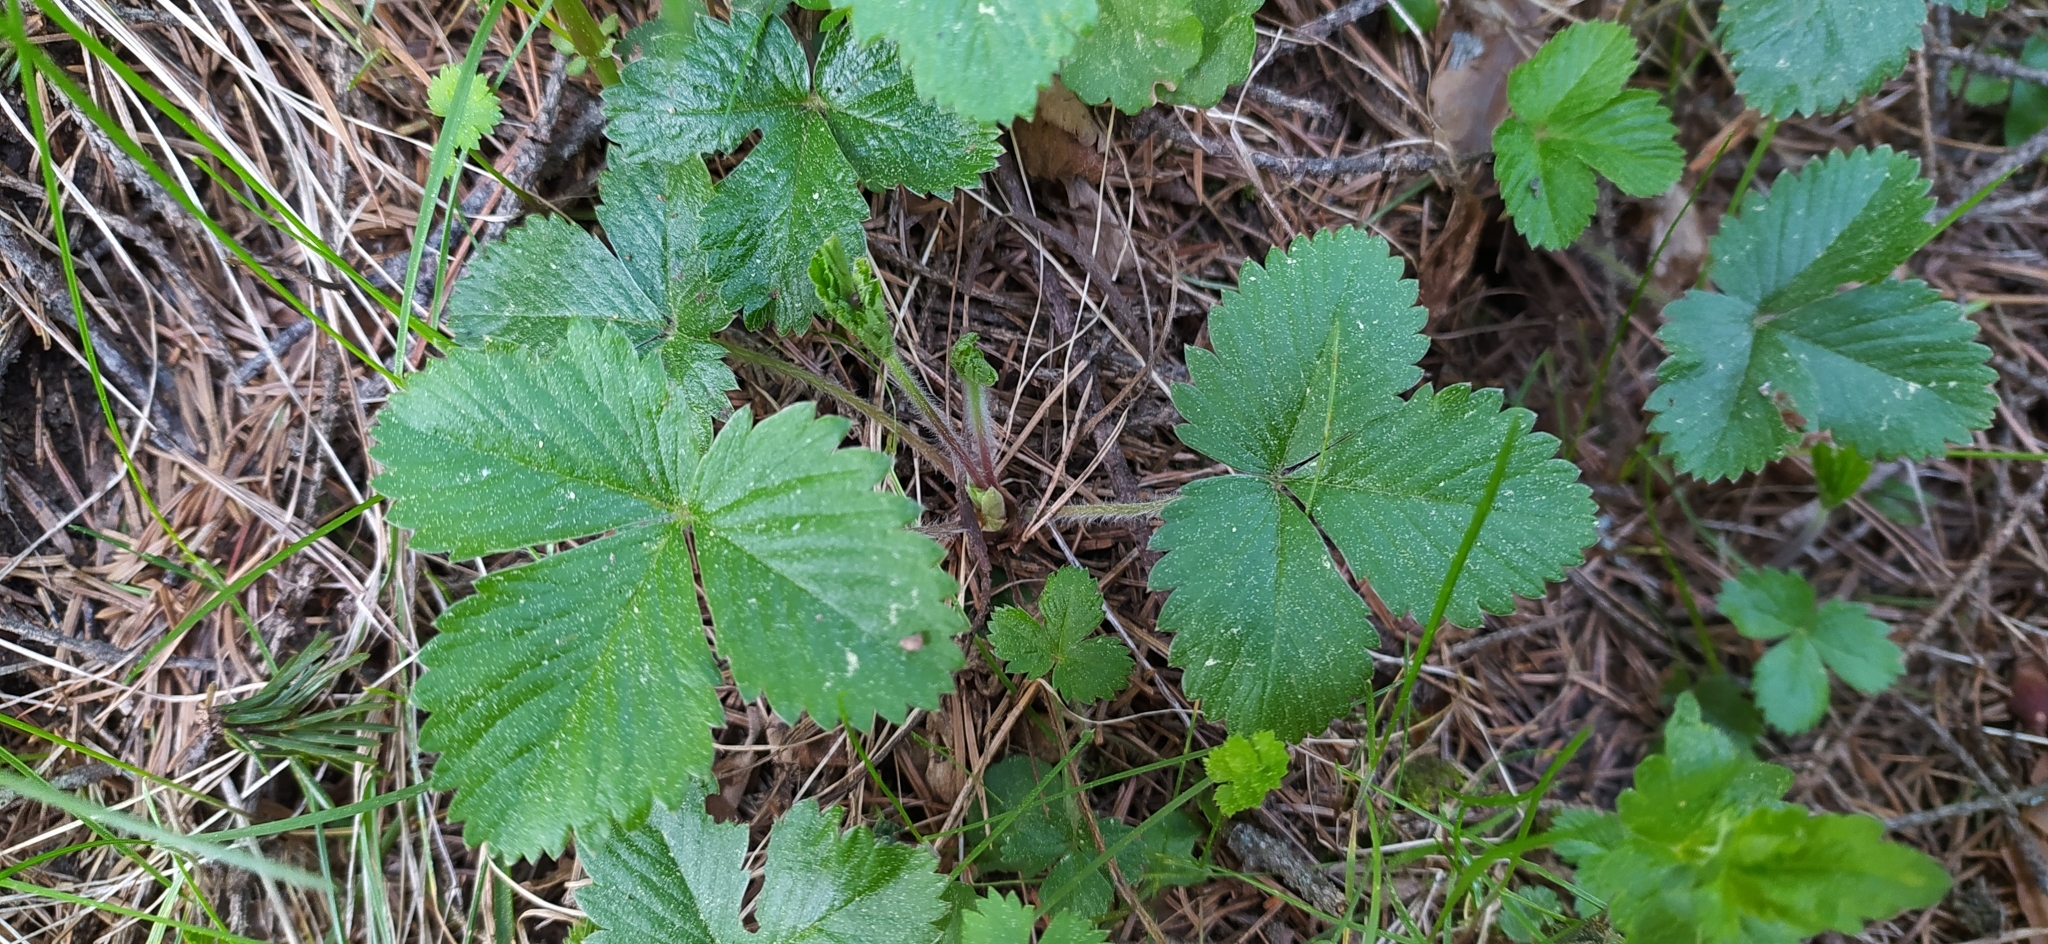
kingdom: Plantae
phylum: Tracheophyta
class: Magnoliopsida
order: Rosales
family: Rosaceae
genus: Fragaria
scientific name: Fragaria vesca
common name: Wild strawberry
